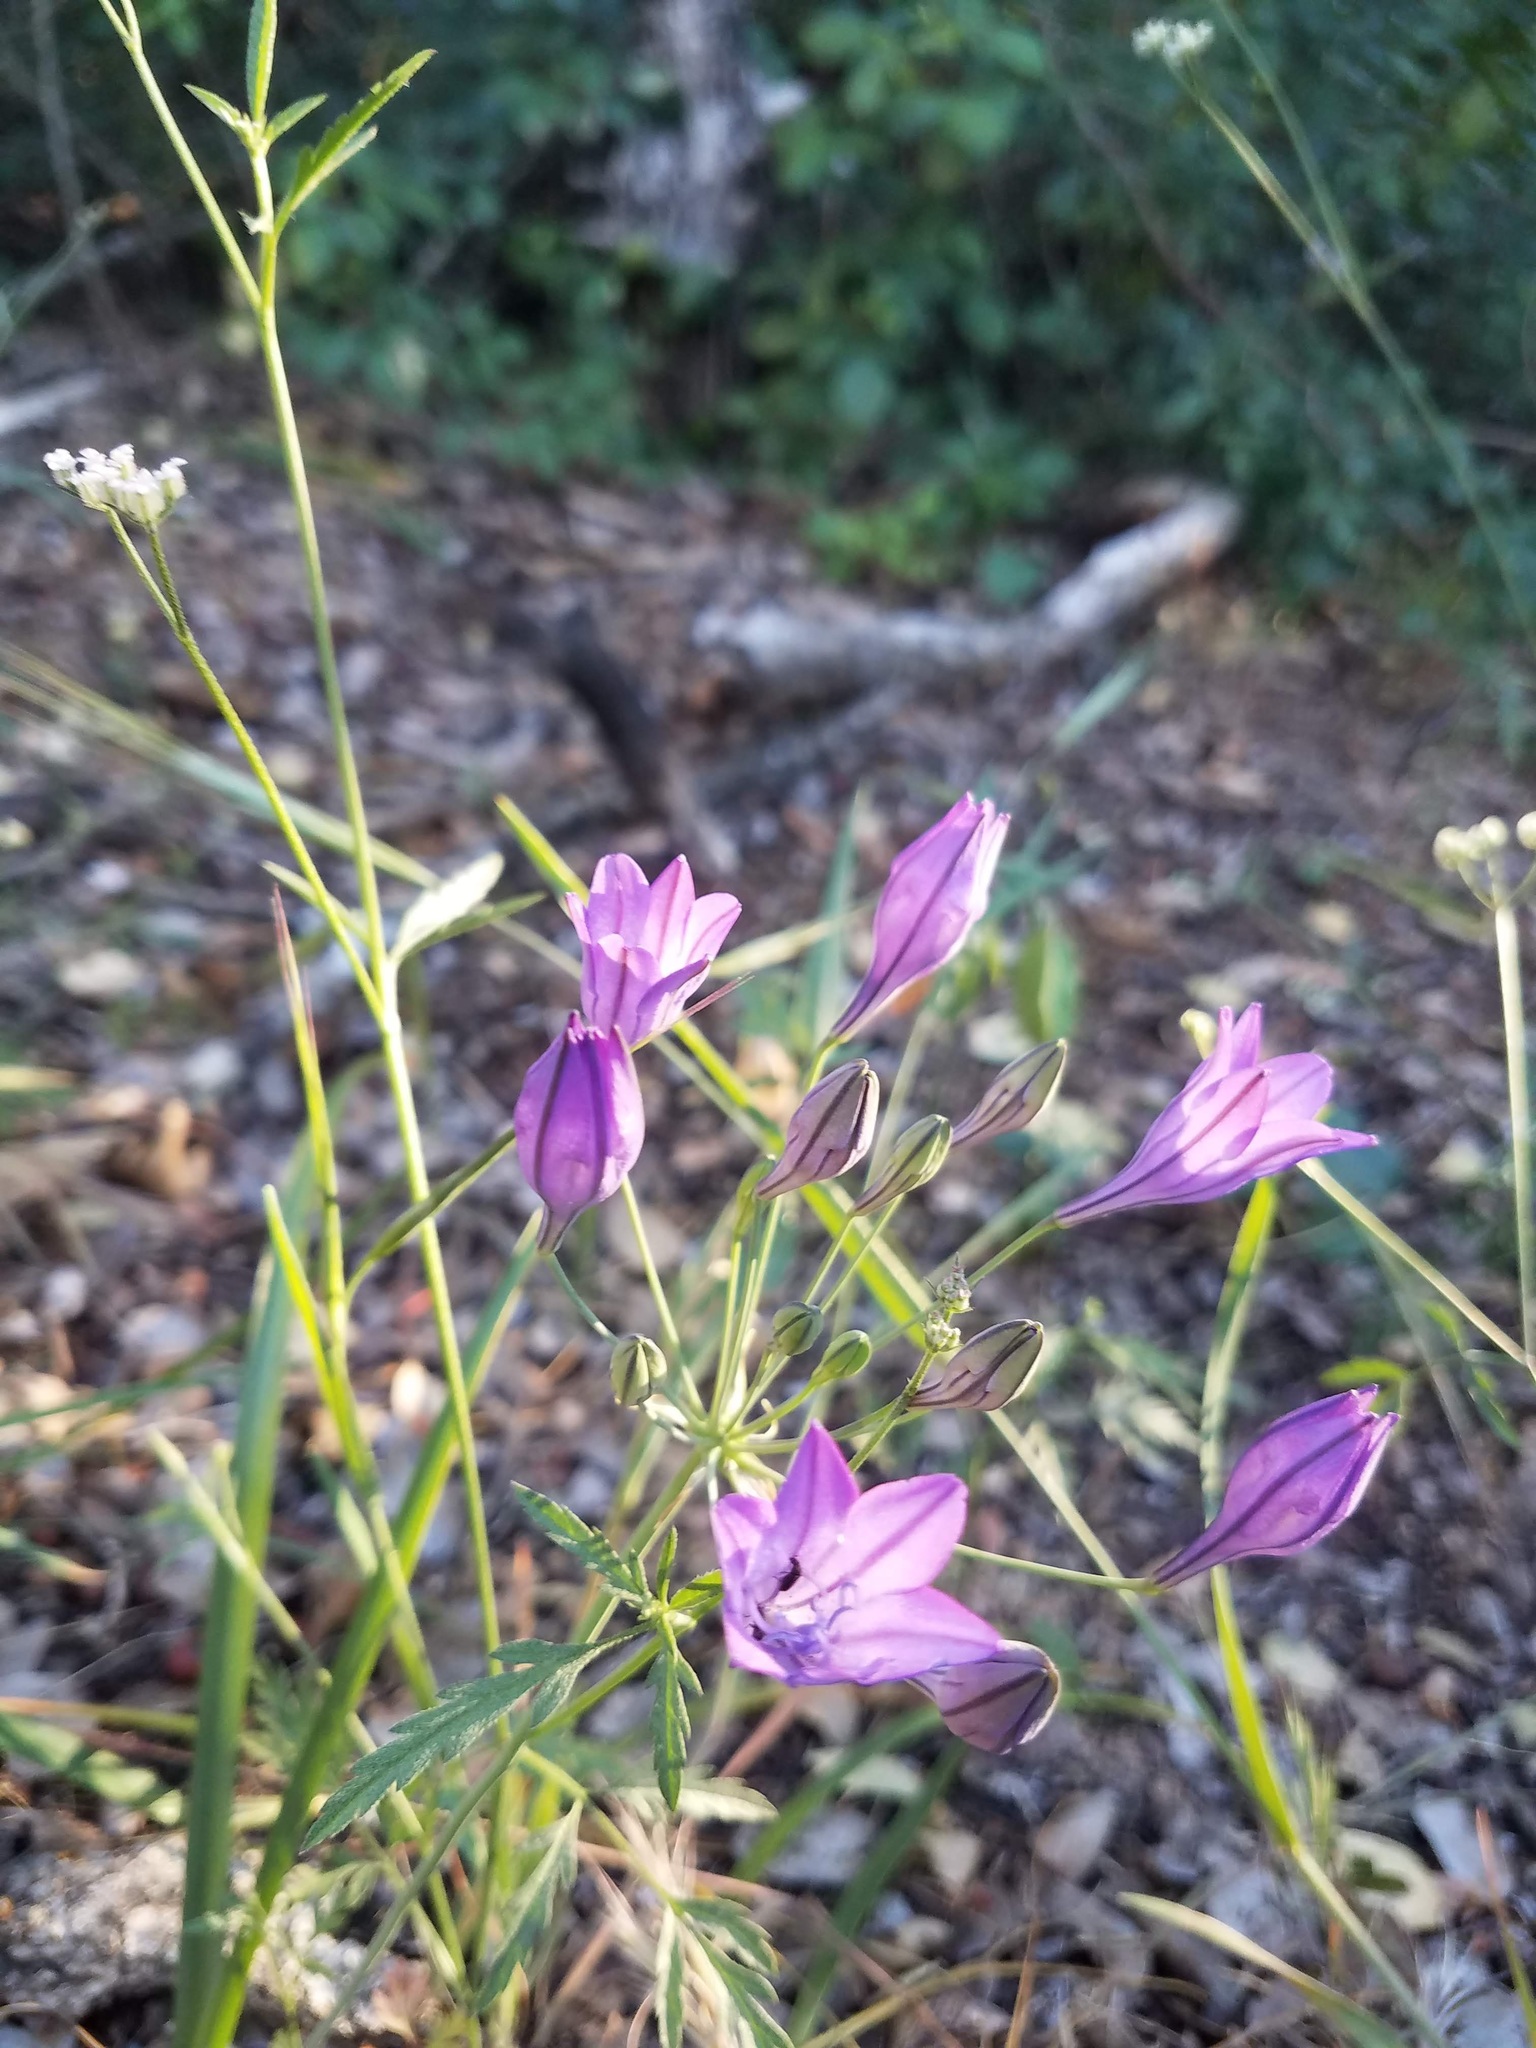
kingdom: Plantae
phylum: Tracheophyta
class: Liliopsida
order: Asparagales
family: Asparagaceae
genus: Triteleia
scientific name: Triteleia laxa
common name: Triplet-lily
